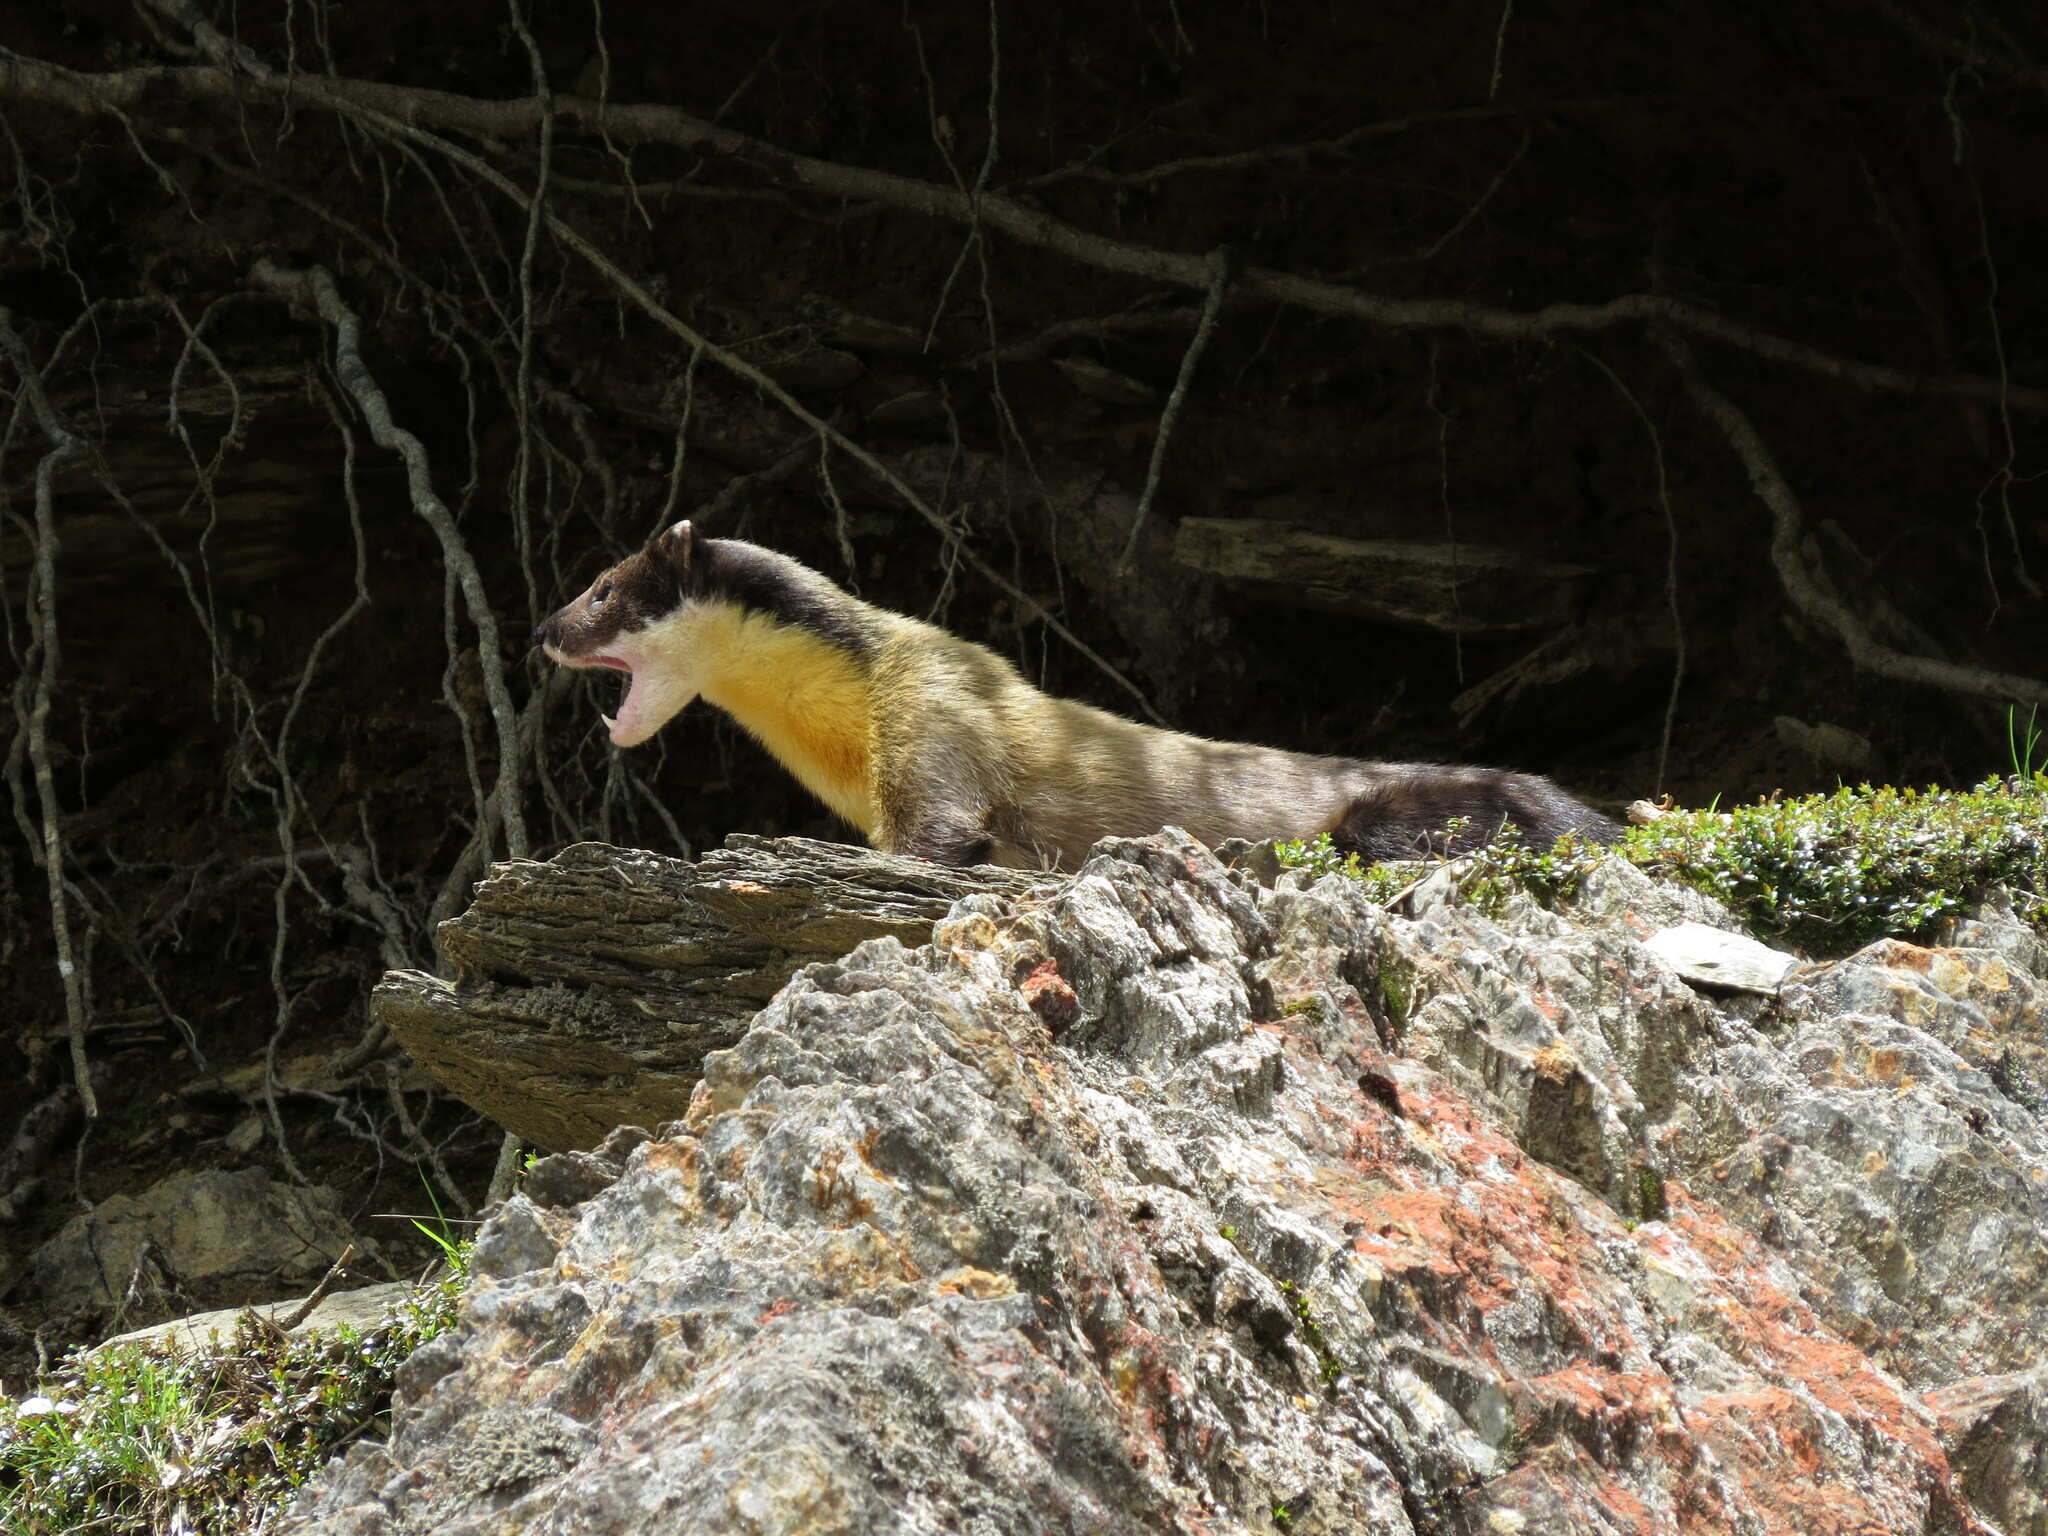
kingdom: Animalia
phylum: Chordata
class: Mammalia
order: Carnivora
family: Mustelidae
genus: Martes
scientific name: Martes flavigula
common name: Yellow-throated marten
